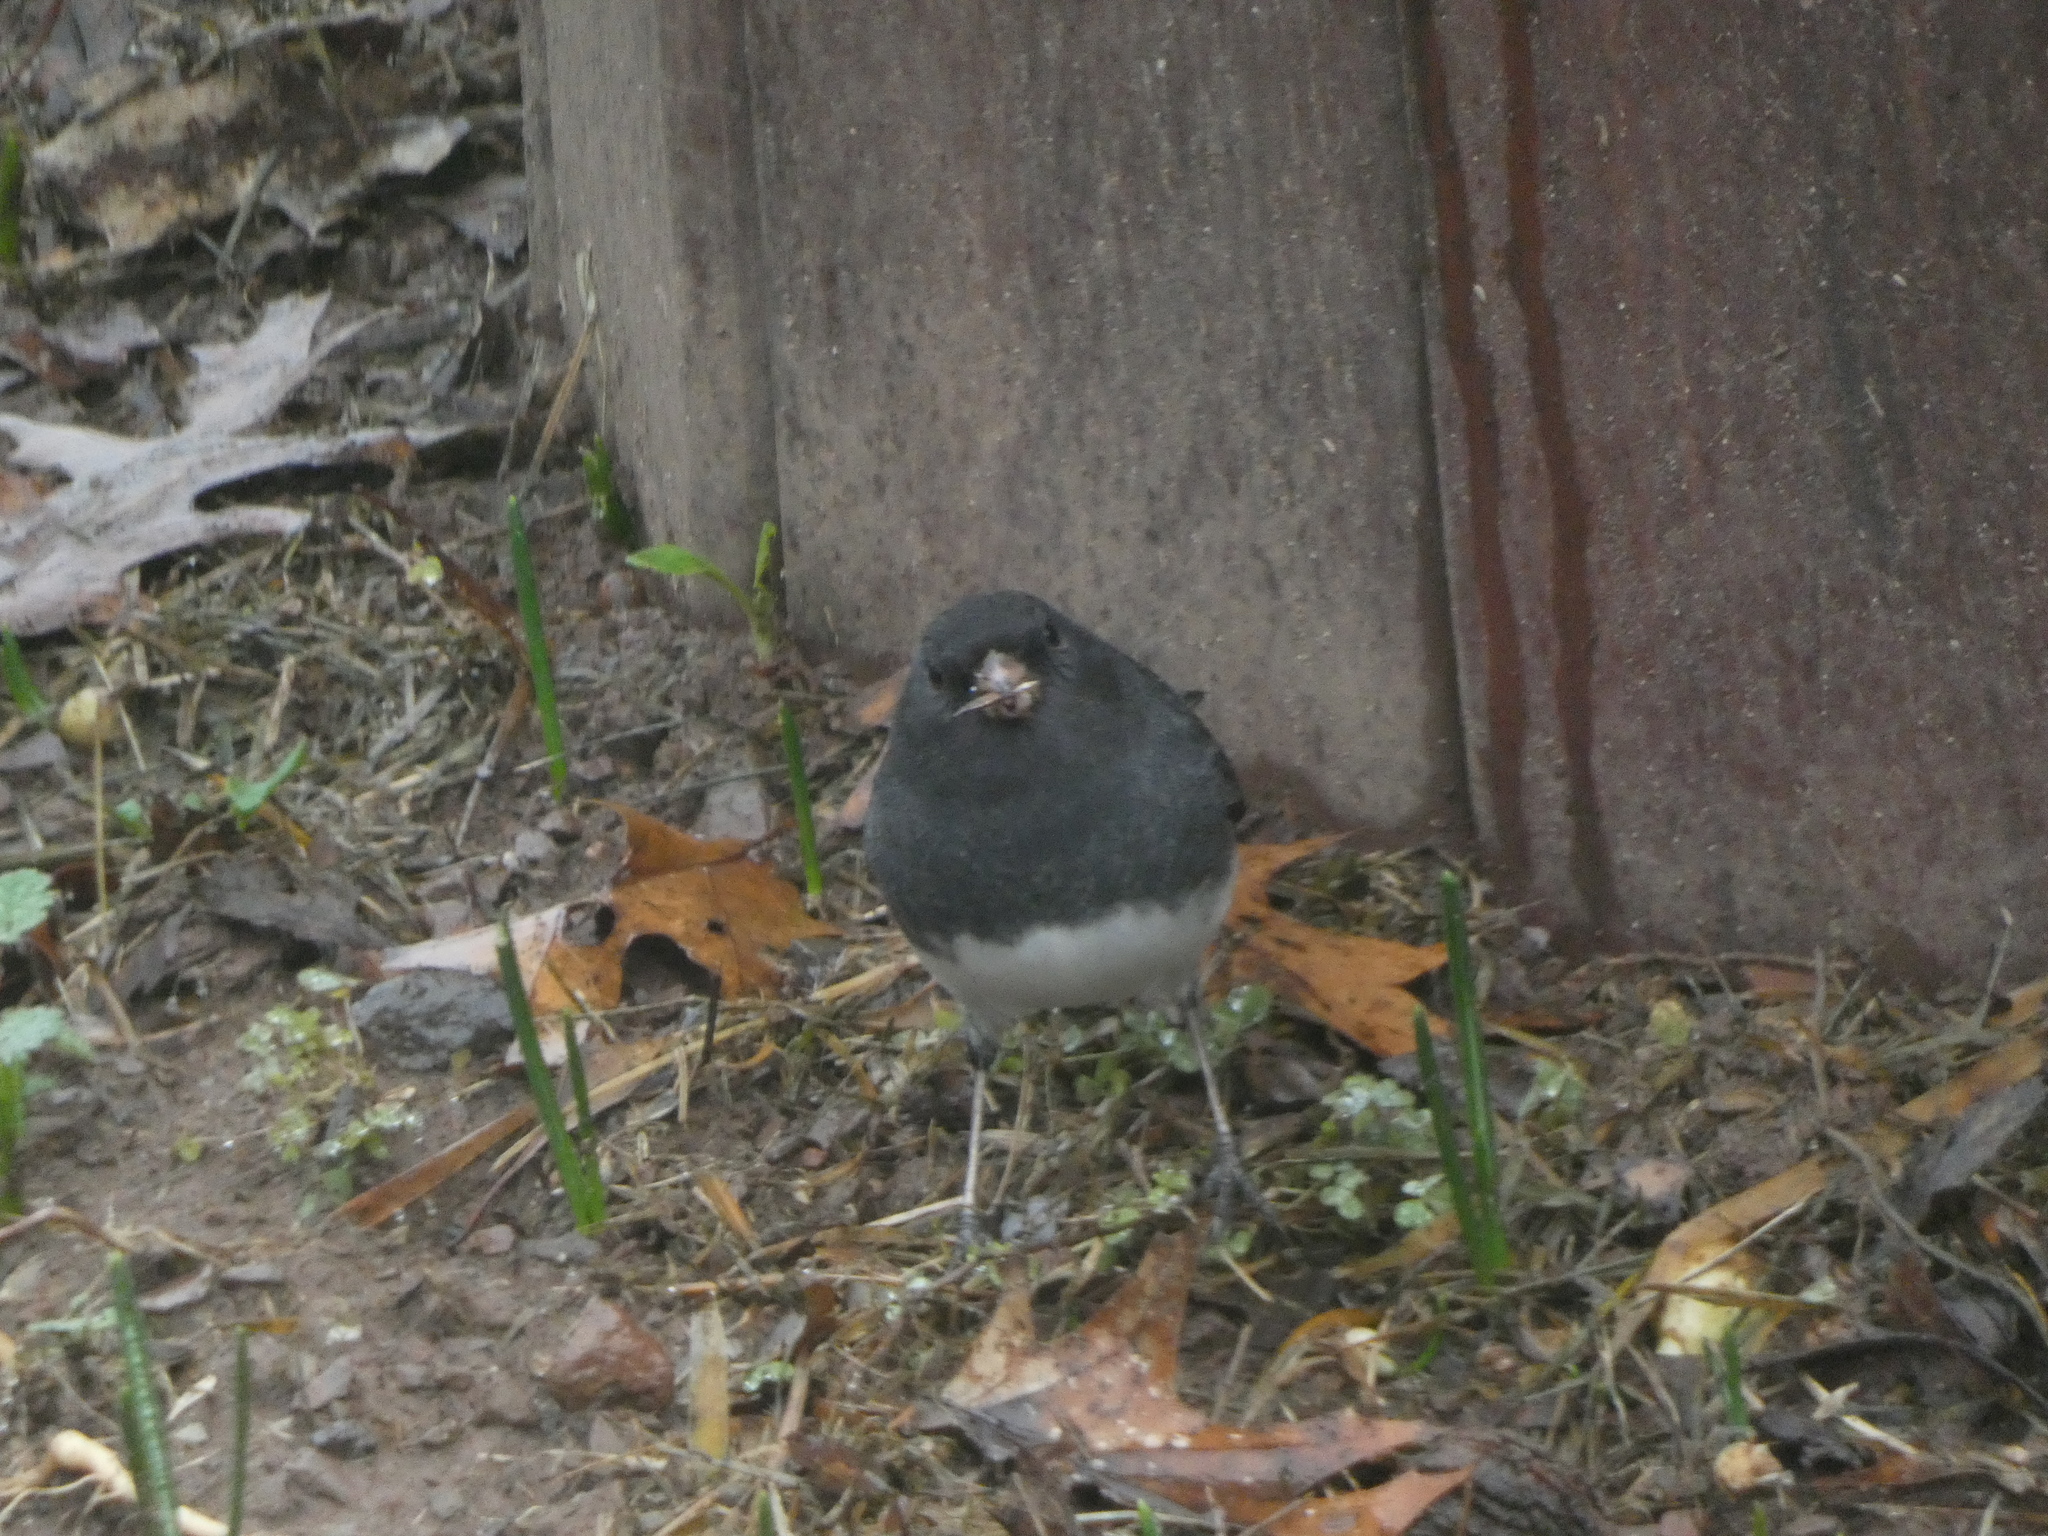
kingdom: Animalia
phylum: Chordata
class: Aves
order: Passeriformes
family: Passerellidae
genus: Junco
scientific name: Junco hyemalis
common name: Dark-eyed junco
